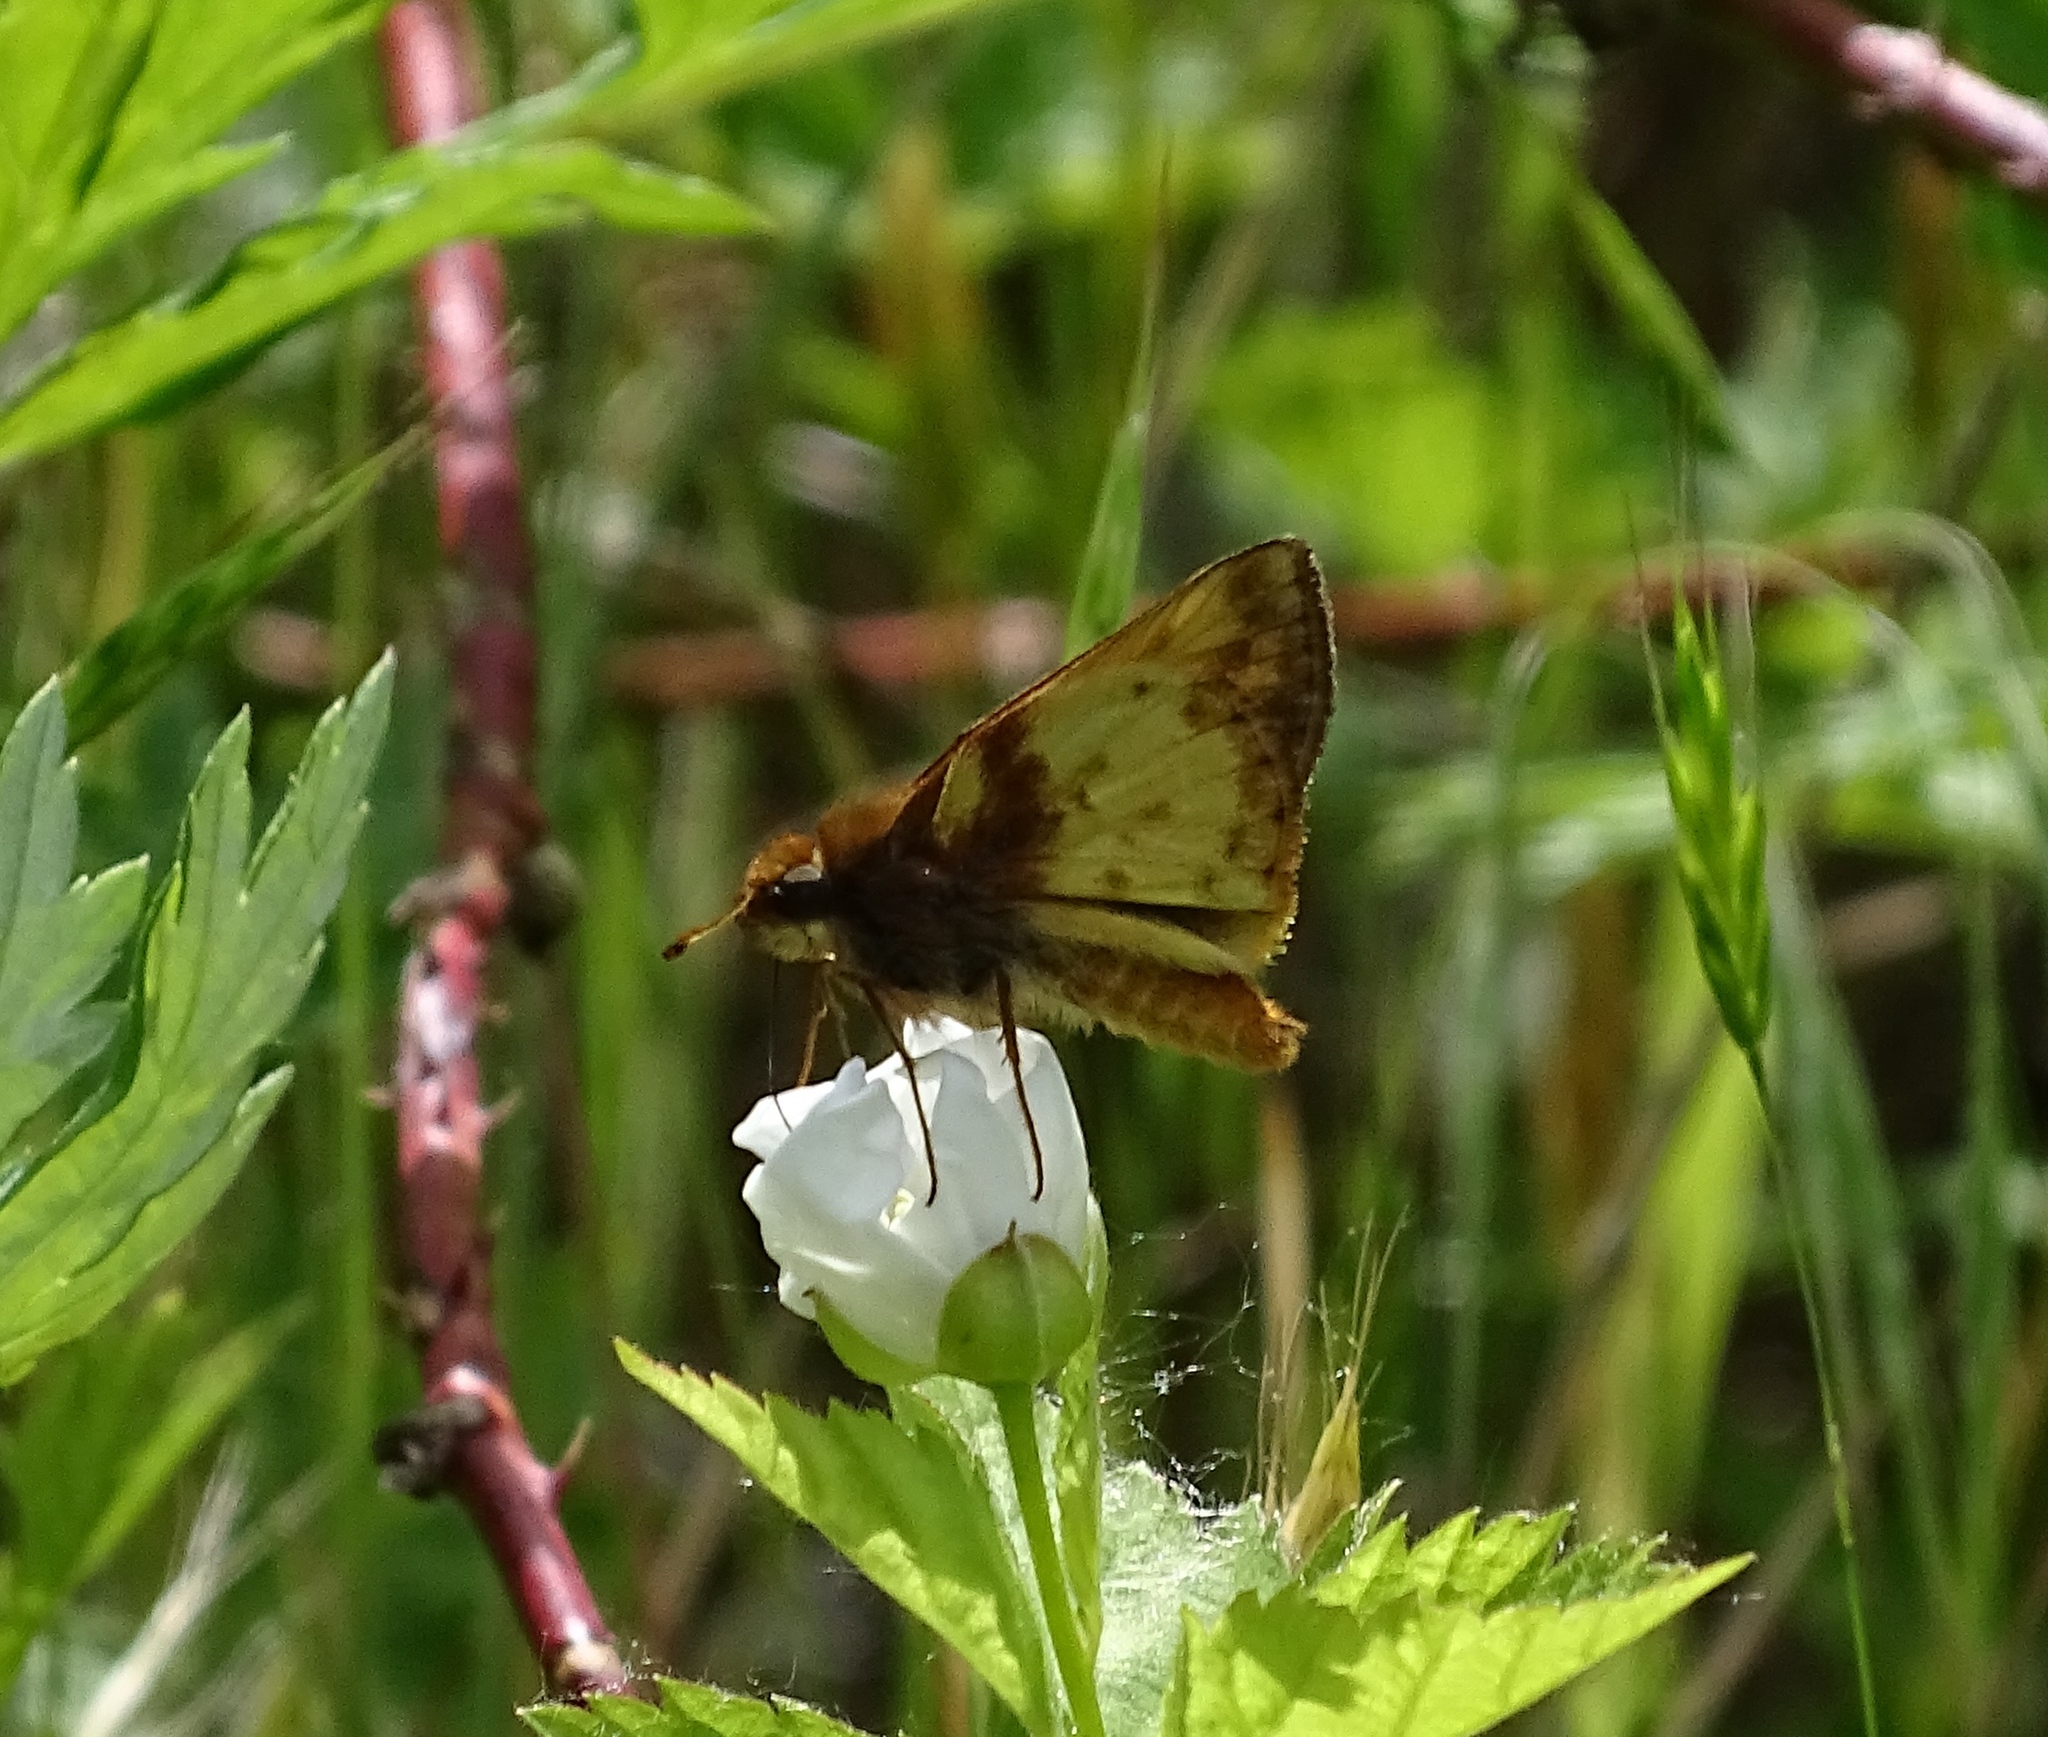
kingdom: Animalia
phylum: Arthropoda
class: Insecta
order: Lepidoptera
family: Hesperiidae
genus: Lon
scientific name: Lon zabulon
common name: Zabulon skipper
